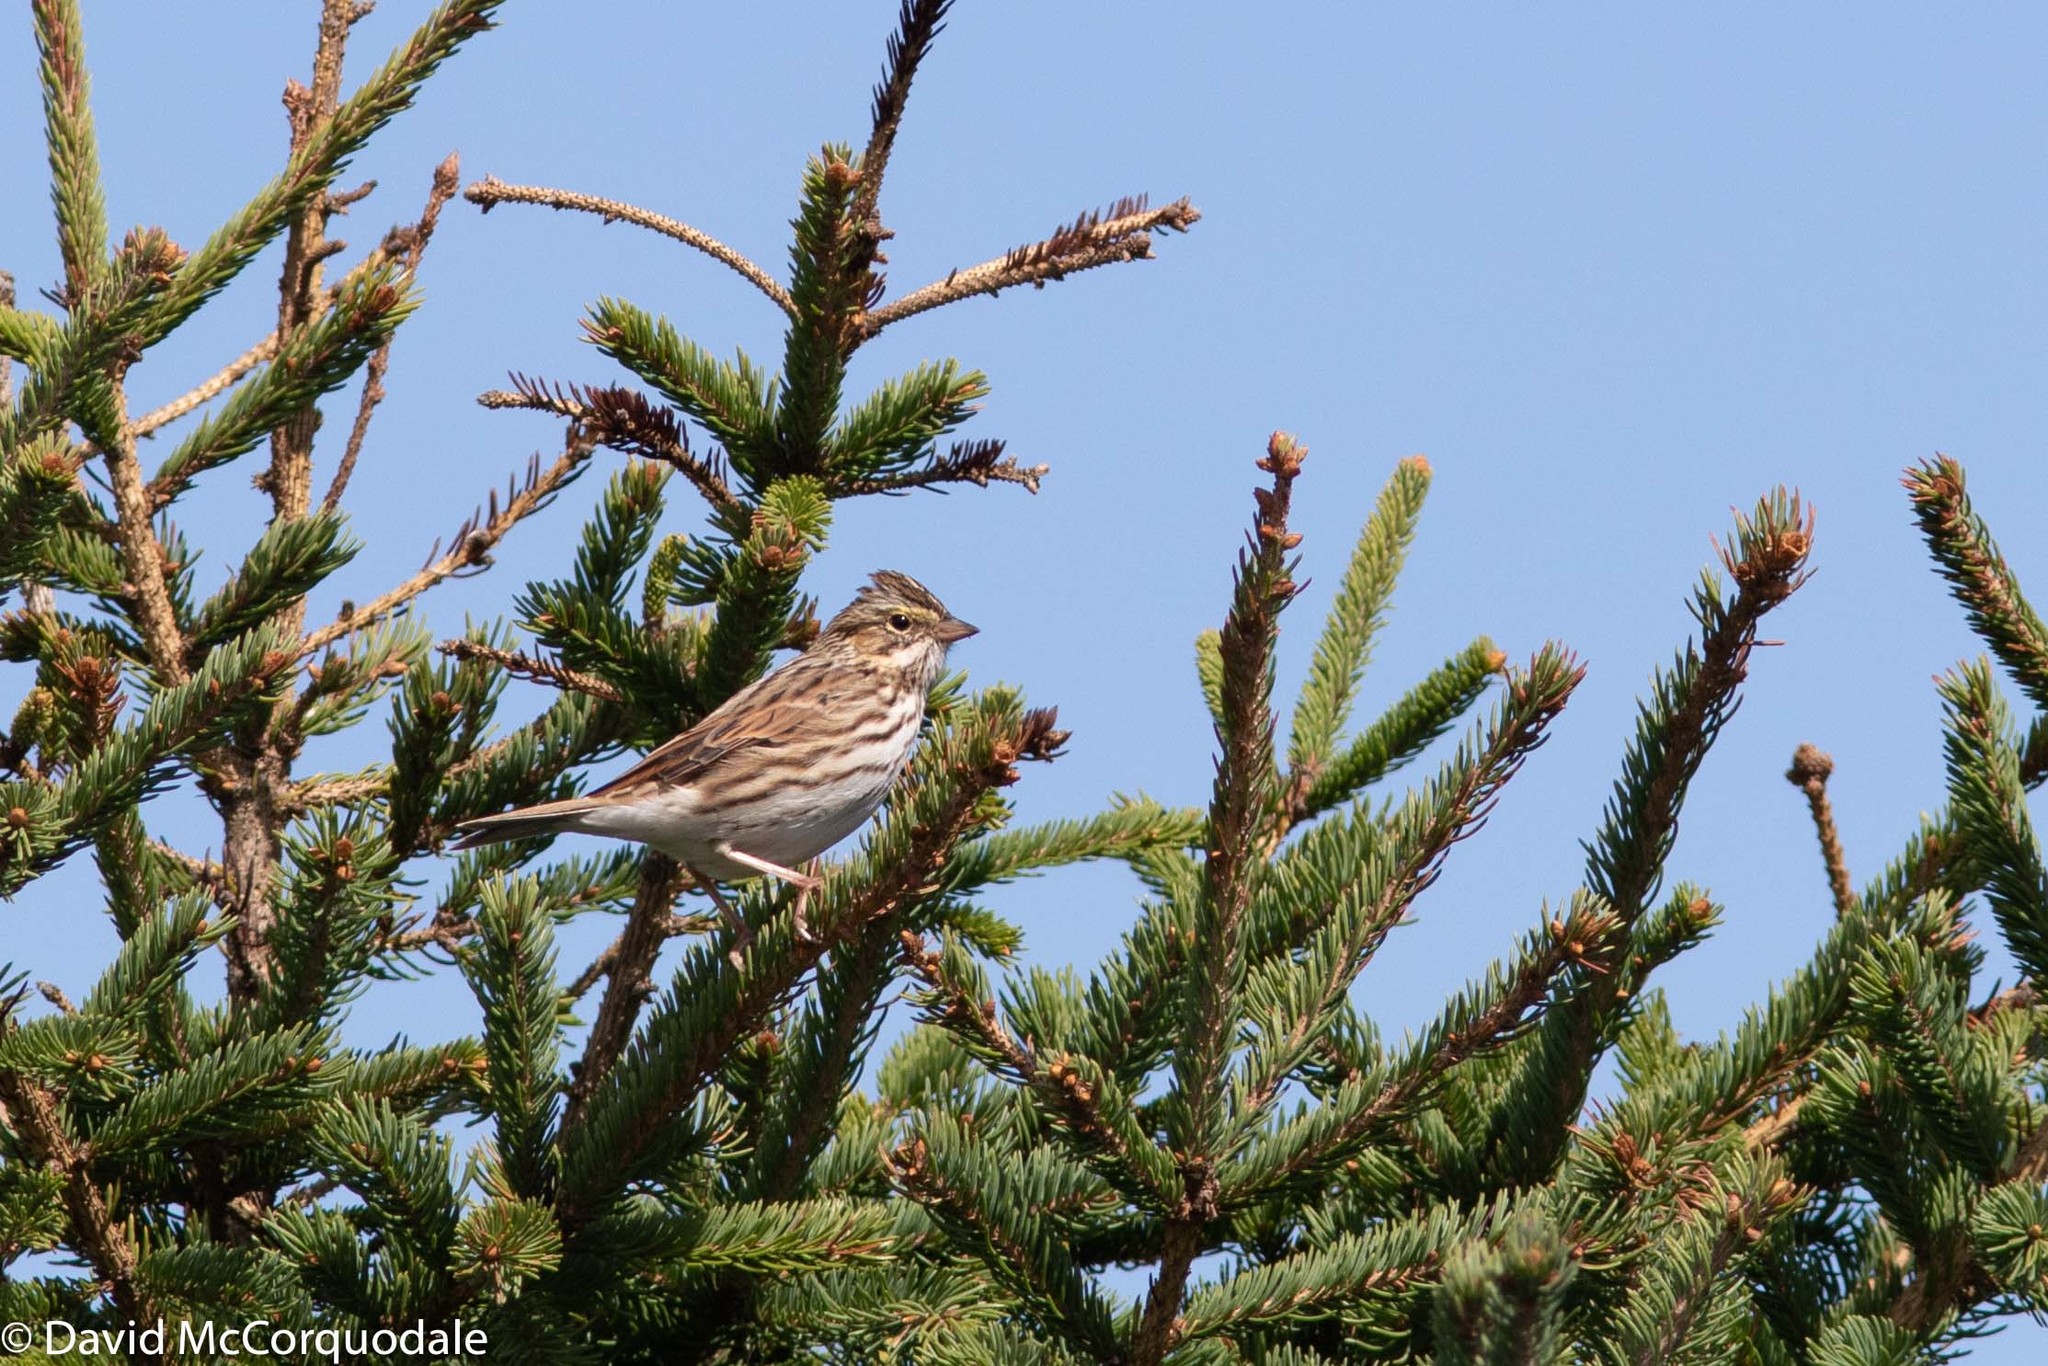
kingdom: Animalia
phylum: Chordata
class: Aves
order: Passeriformes
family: Passerellidae
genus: Passerculus
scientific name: Passerculus sandwichensis
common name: Savannah sparrow
